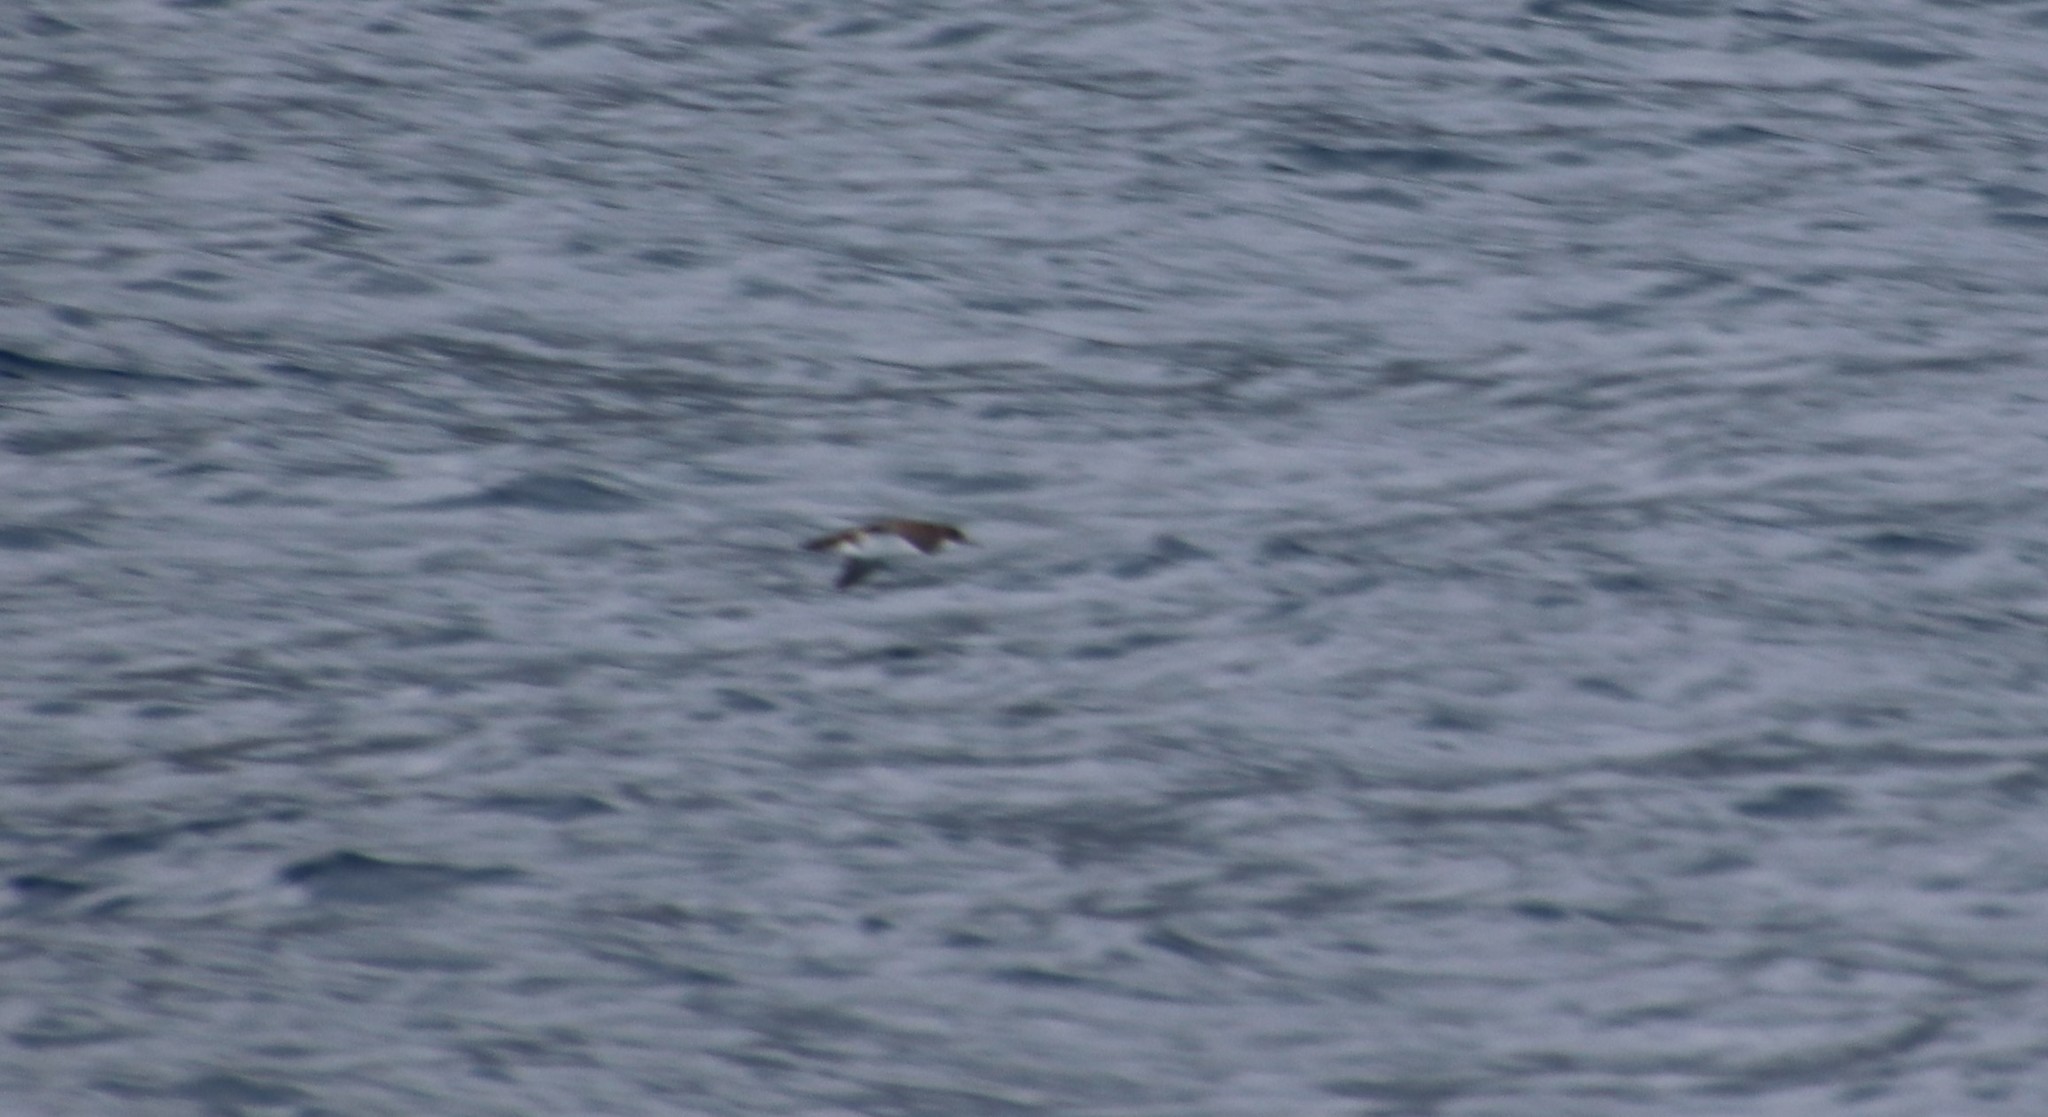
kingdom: Animalia
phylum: Chordata
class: Aves
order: Procellariiformes
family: Procellariidae
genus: Puffinus
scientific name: Puffinus yelkouan
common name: Yelkouan shearwater
